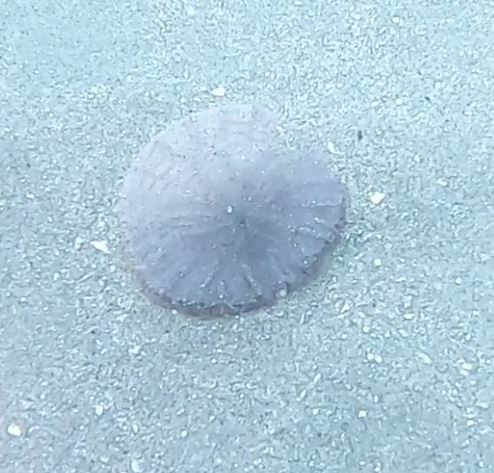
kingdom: Animalia
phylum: Echinodermata
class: Echinoidea
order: Echinolampadacea
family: Dendrasteridae
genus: Dendraster
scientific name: Dendraster excentricus
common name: Eccentric sand dollar sea urchin
